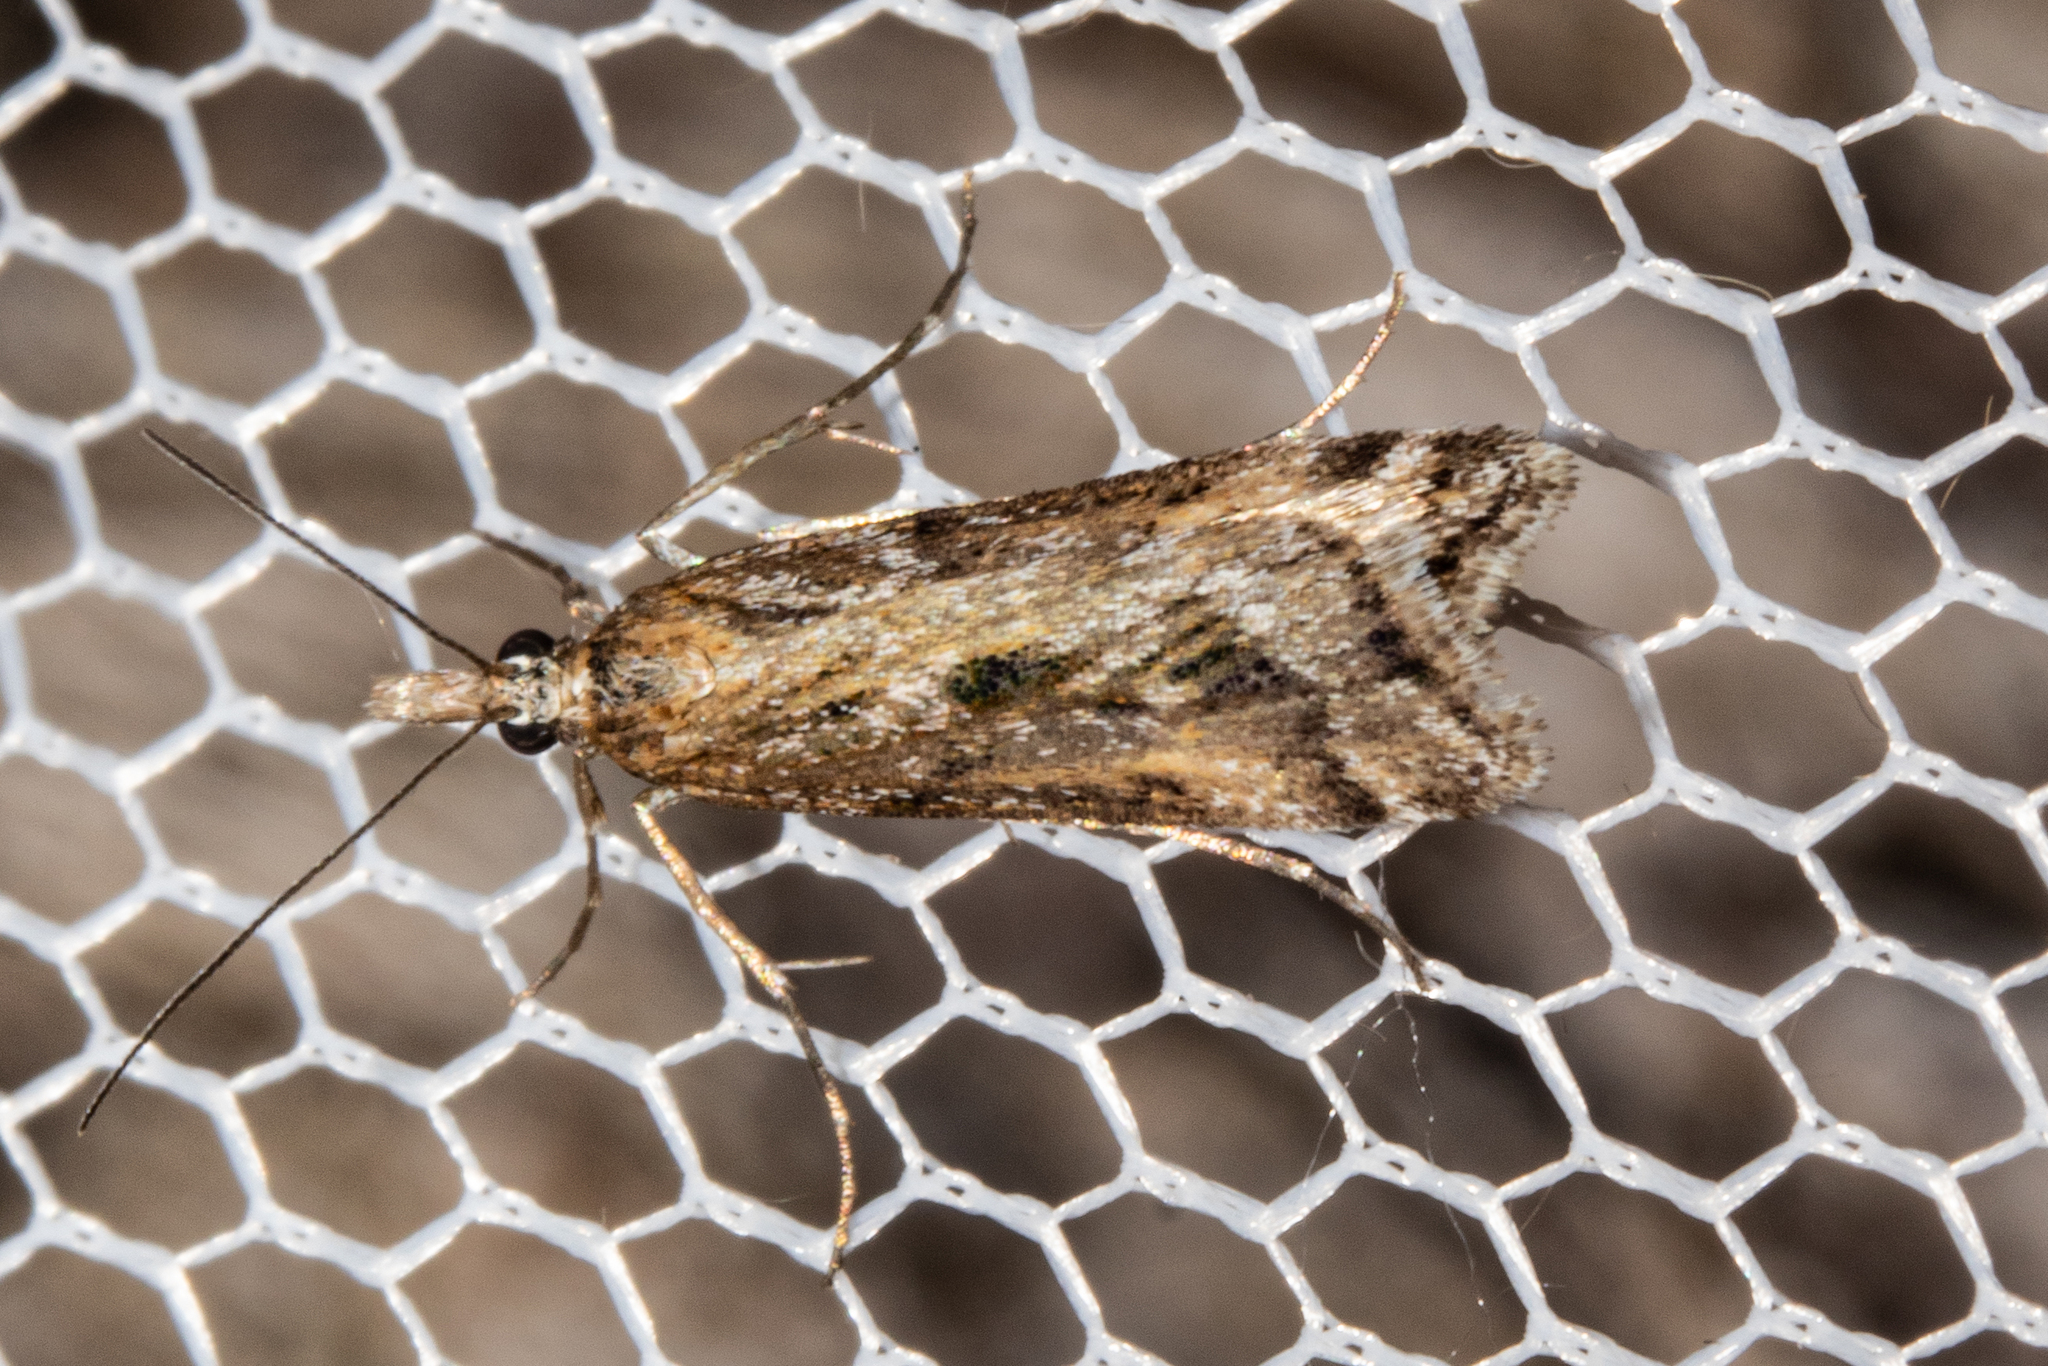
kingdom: Animalia
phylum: Arthropoda
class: Insecta
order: Lepidoptera
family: Crambidae
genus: Scoparia
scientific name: Scoparia exilis
